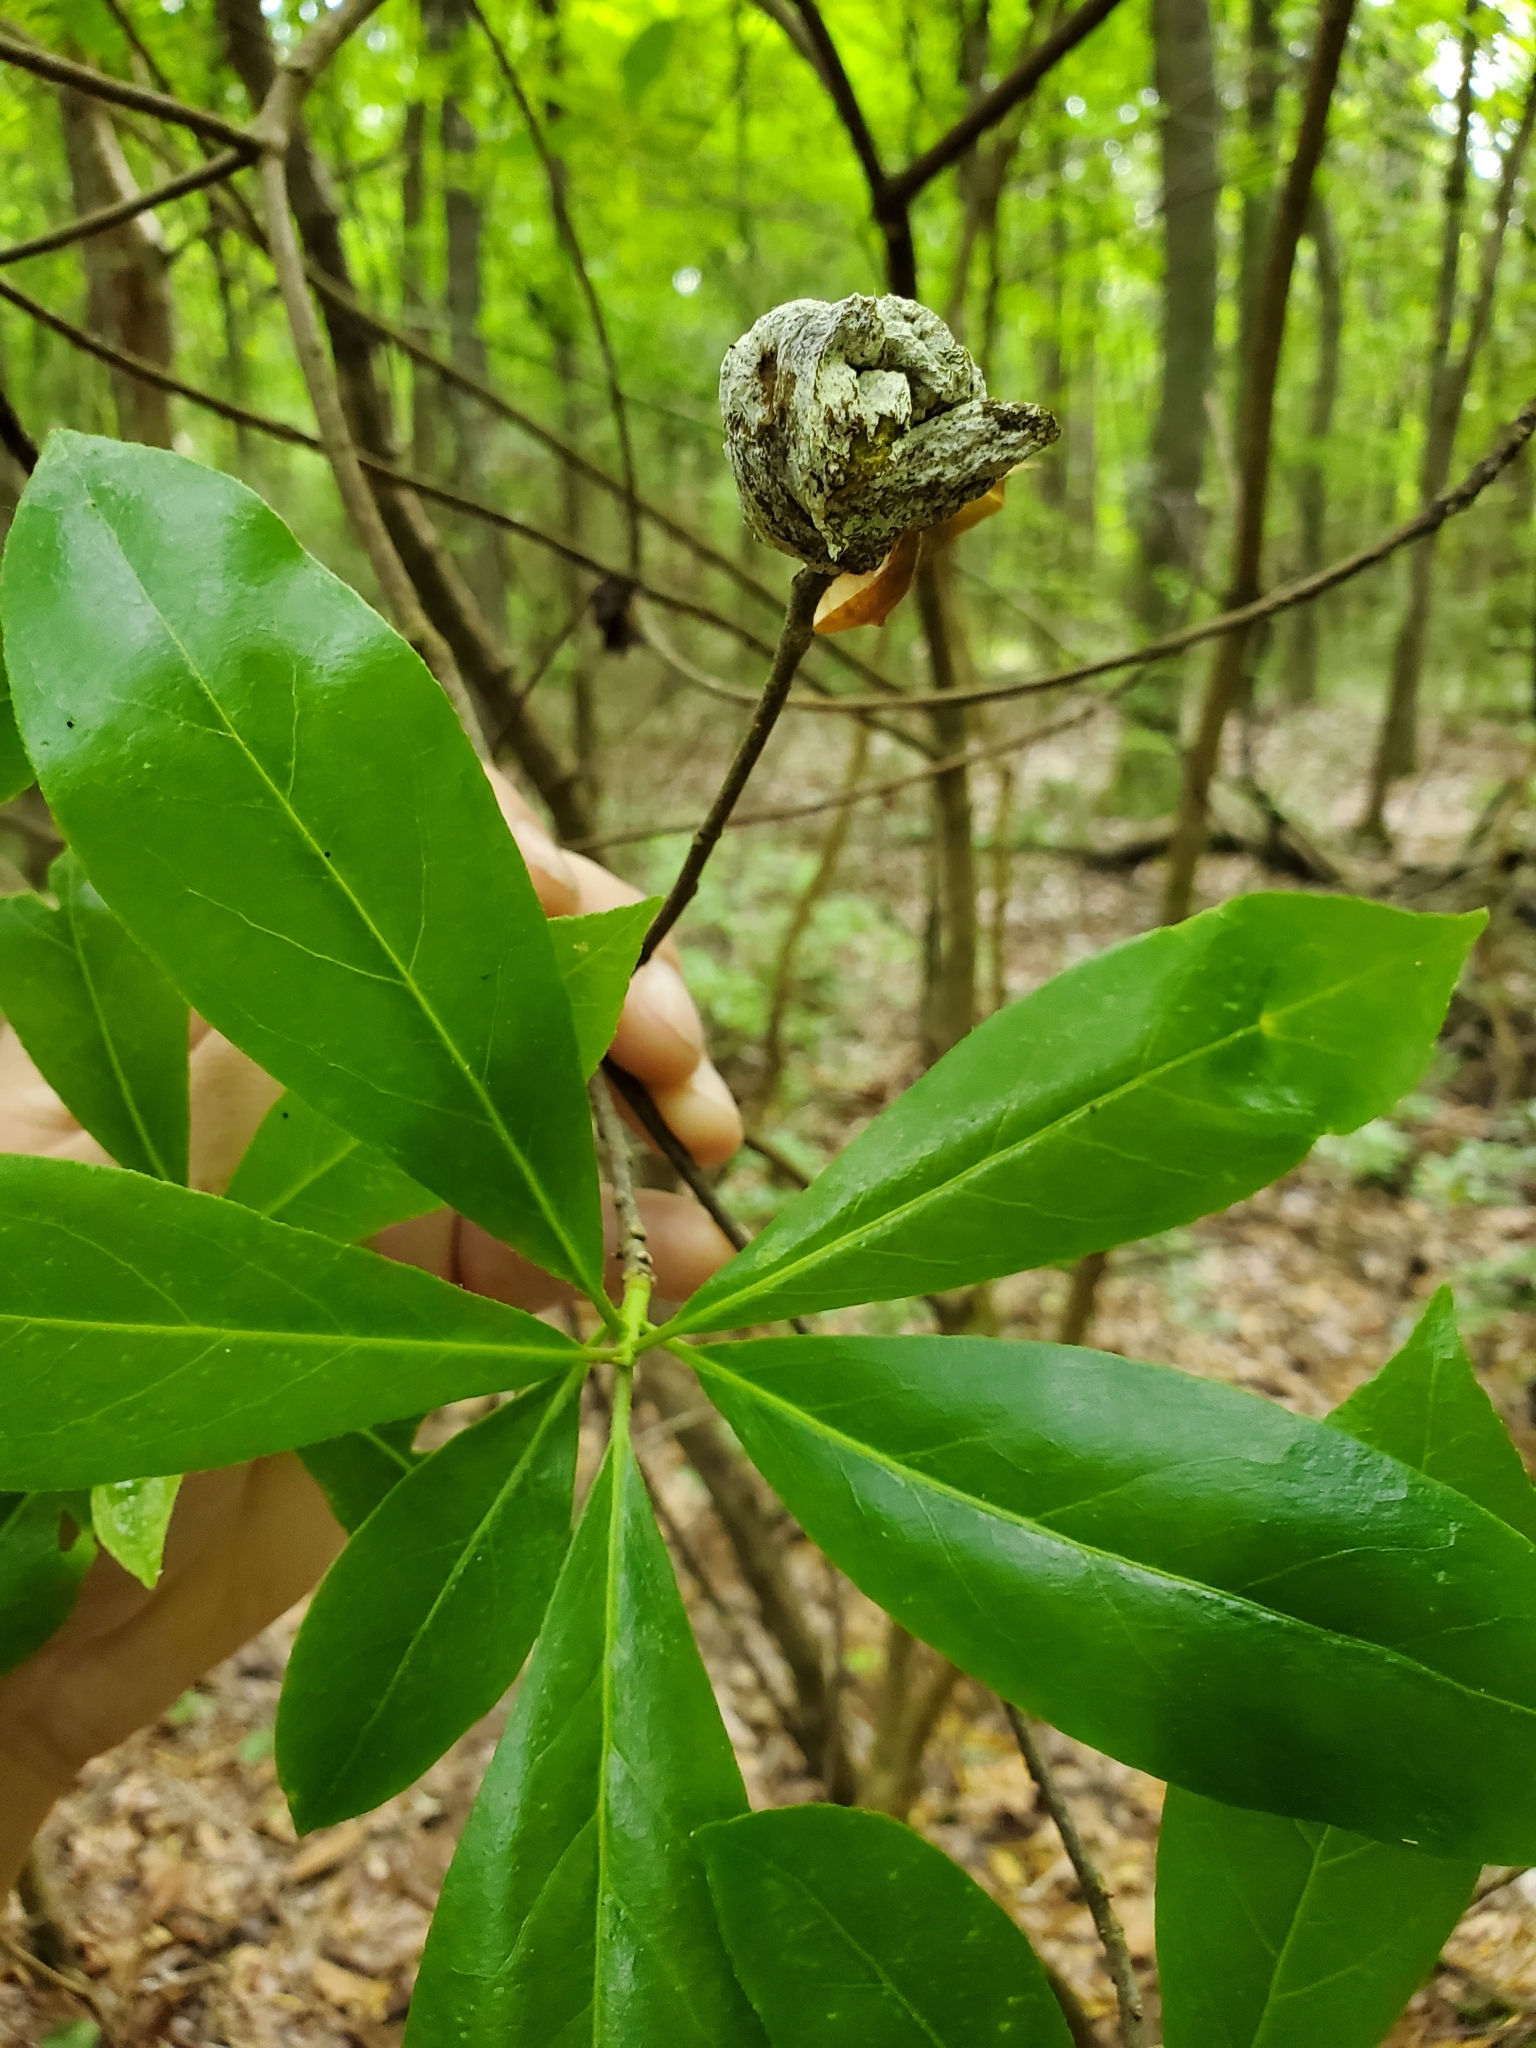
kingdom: Fungi
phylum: Basidiomycota
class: Exobasidiomycetes
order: Exobasidiales
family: Exobasidiaceae
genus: Exobasidium
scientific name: Exobasidium symploci
